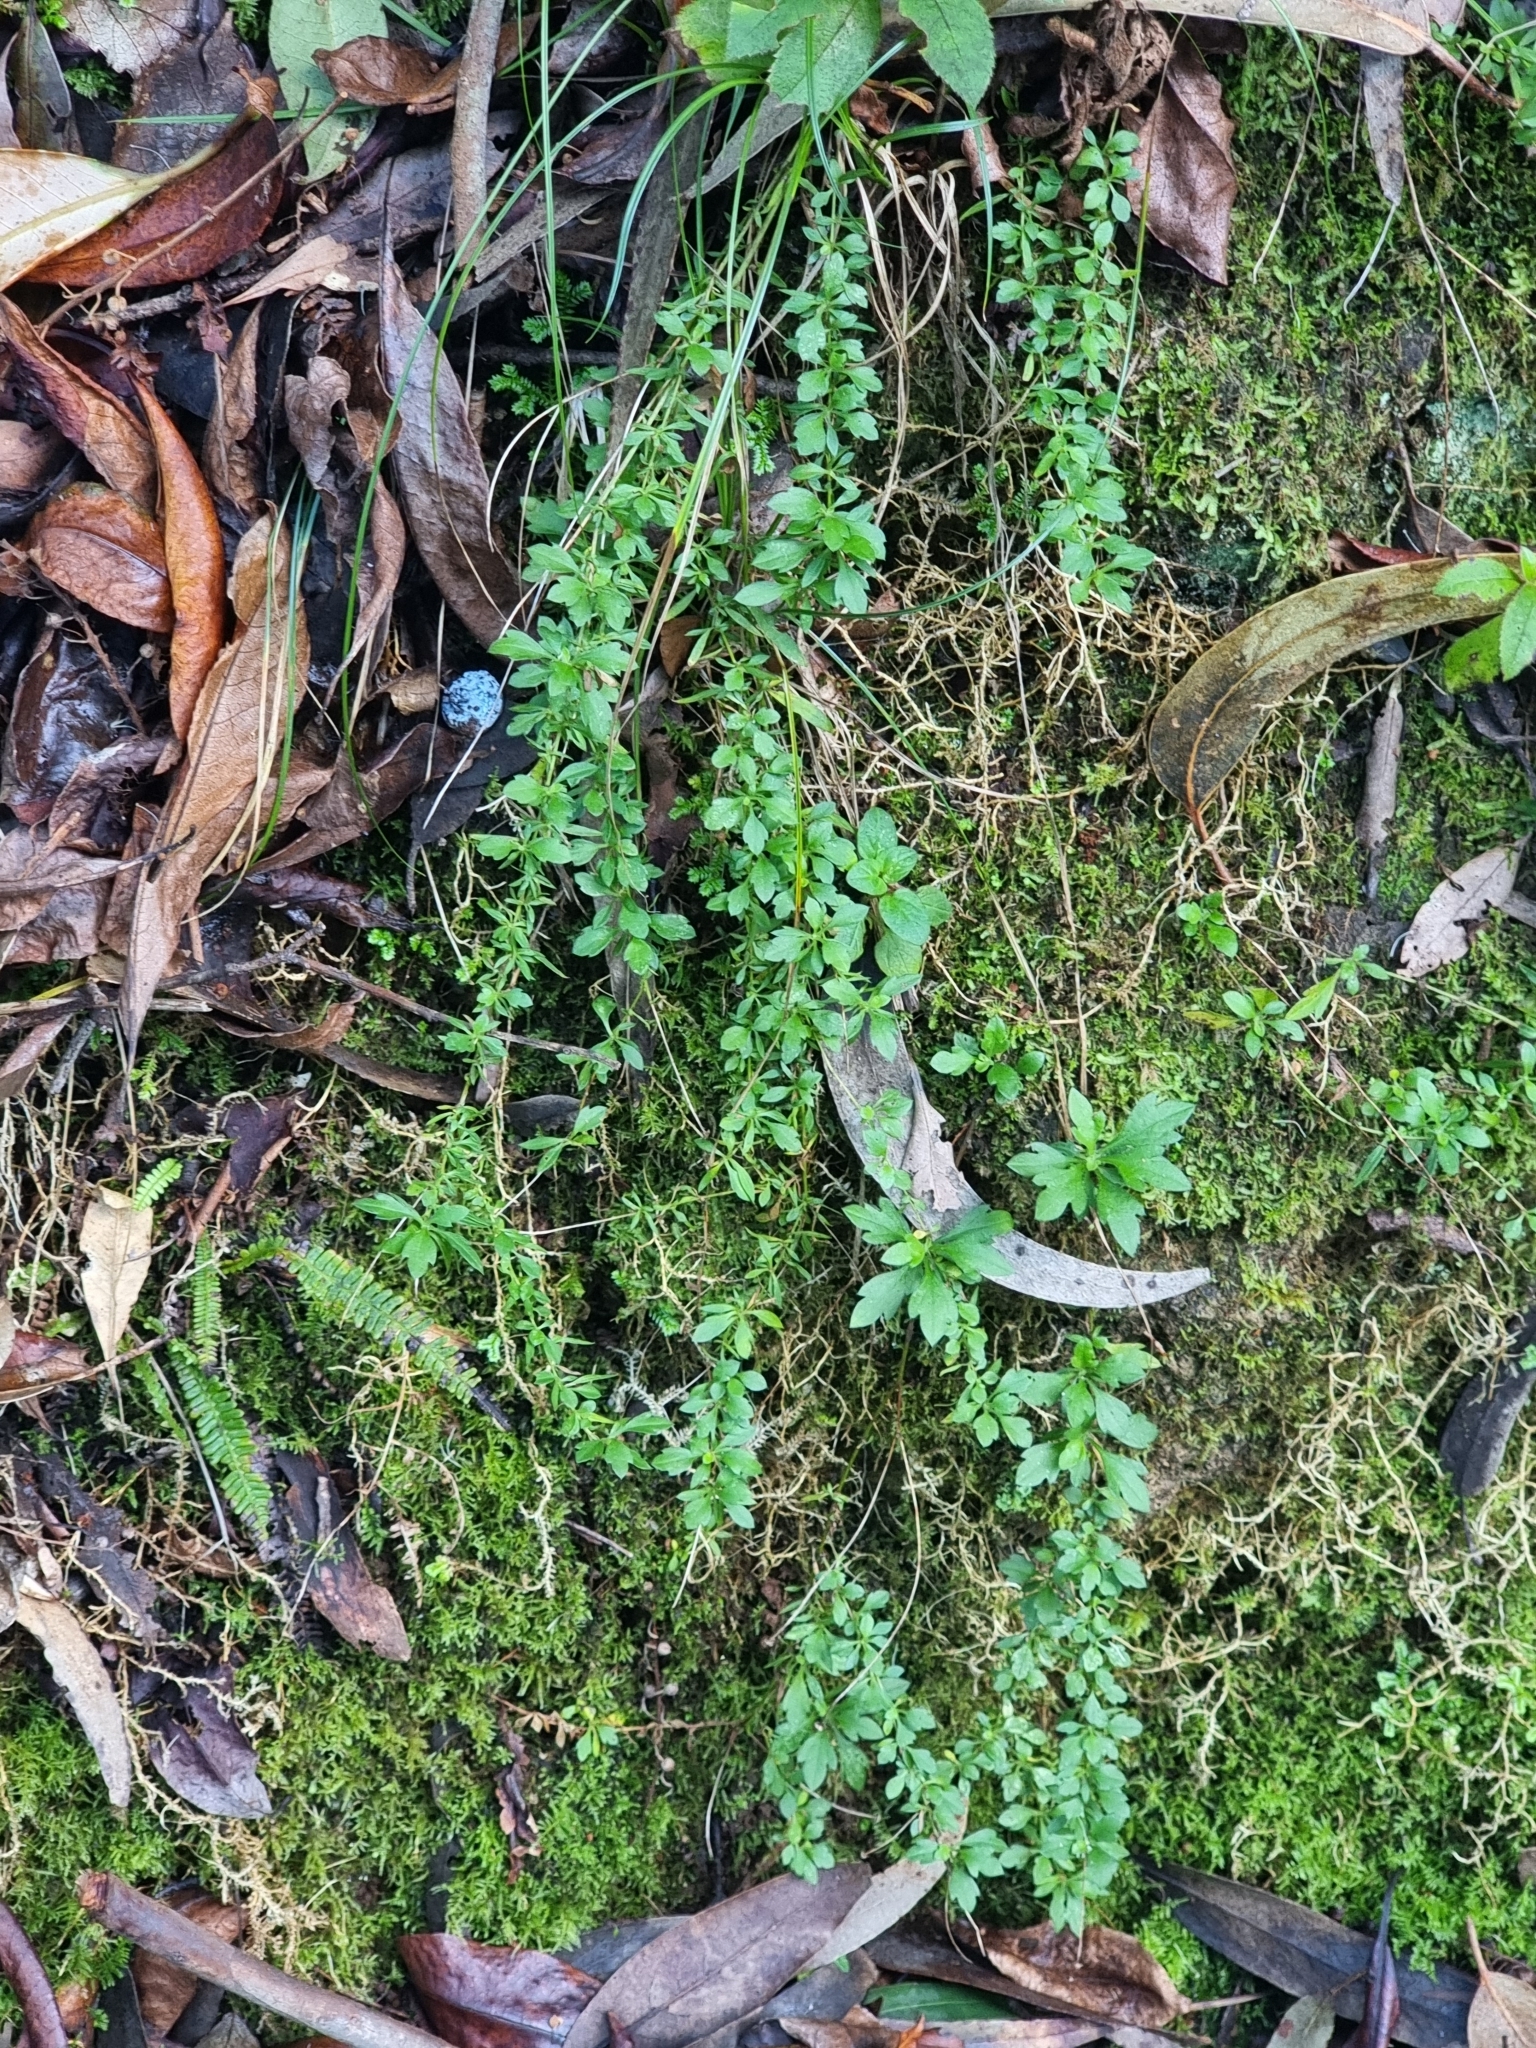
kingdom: Plantae
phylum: Tracheophyta
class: Magnoliopsida
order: Asterales
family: Asteraceae
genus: Erigeron
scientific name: Erigeron karvinskianus
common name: Mexican fleabane
